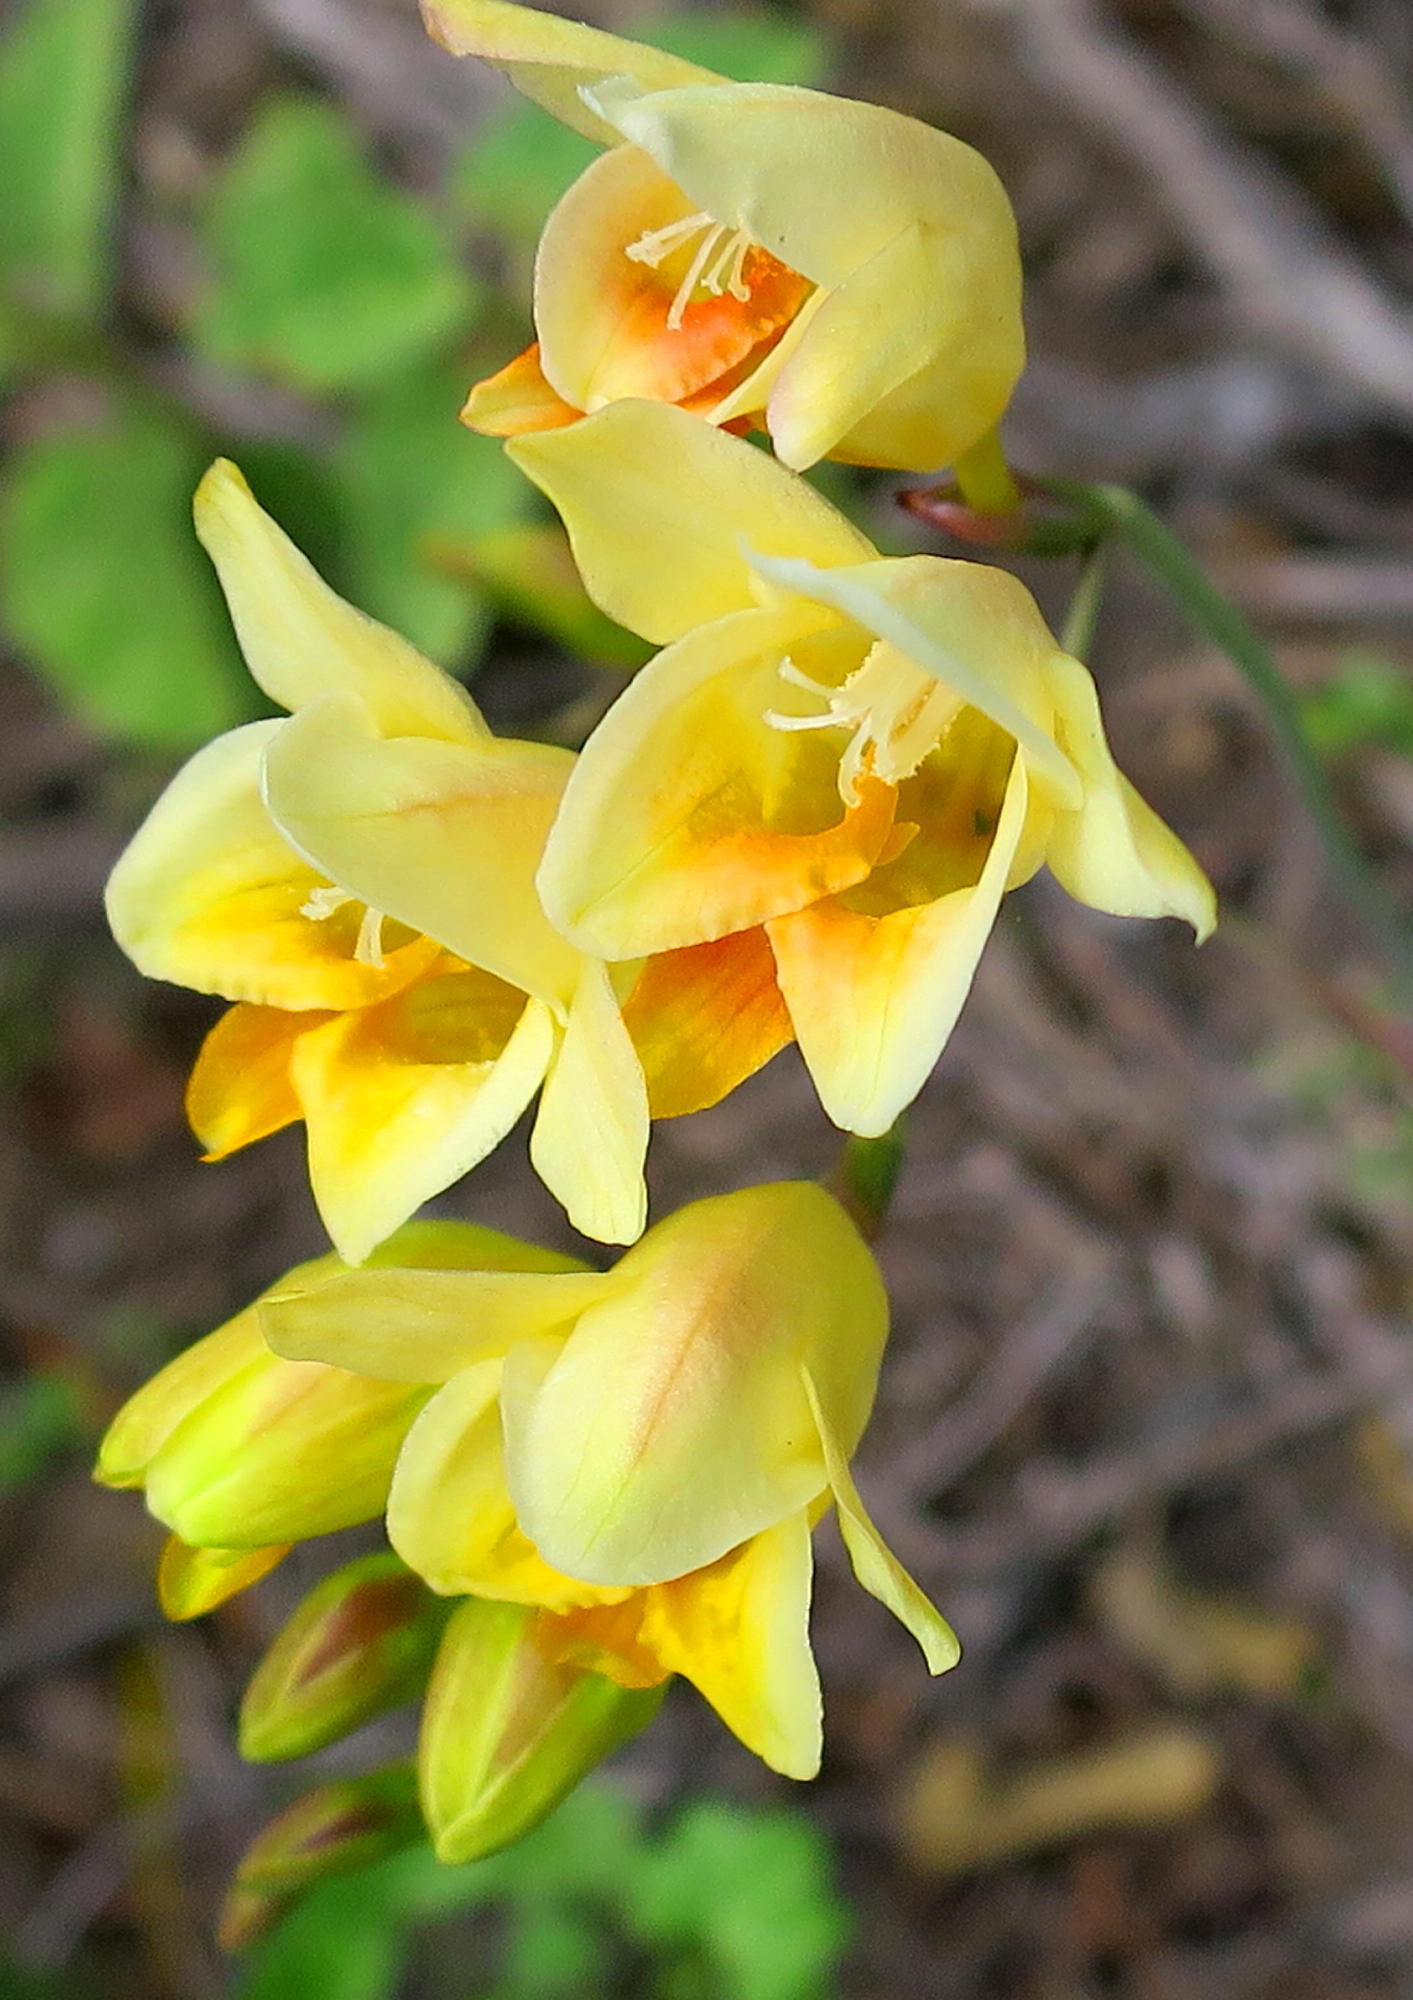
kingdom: Plantae
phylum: Tracheophyta
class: Liliopsida
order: Asparagales
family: Iridaceae
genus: Freesia
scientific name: Freesia corymbosa
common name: Common freesia
